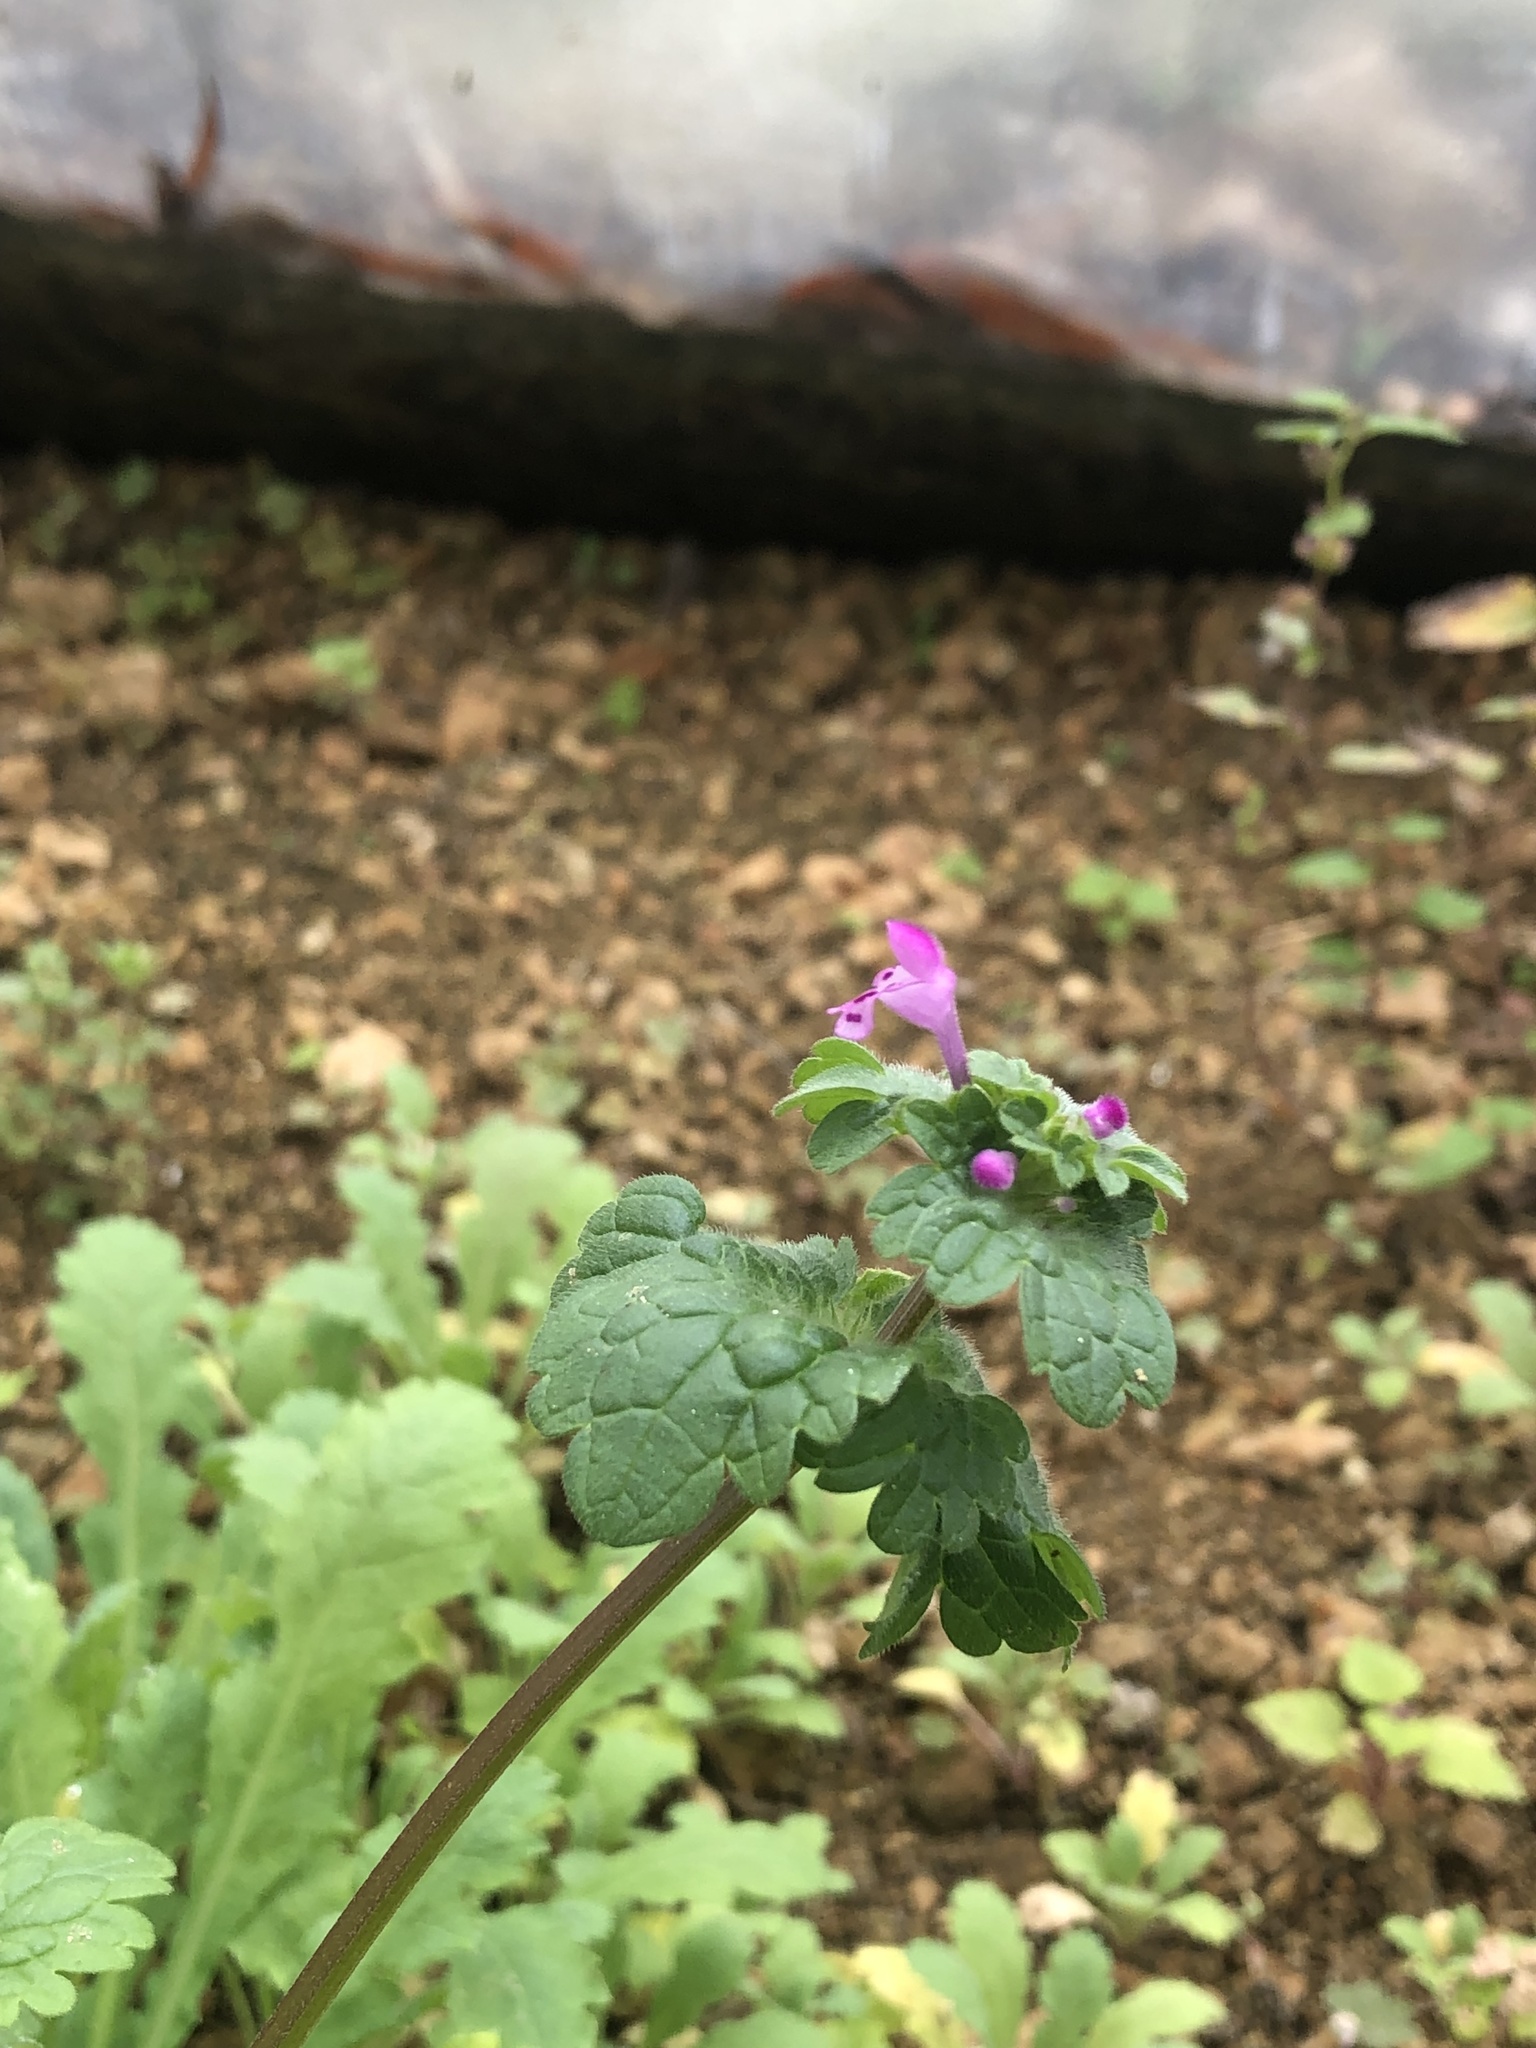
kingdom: Plantae
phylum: Tracheophyta
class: Magnoliopsida
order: Lamiales
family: Lamiaceae
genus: Lamium
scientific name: Lamium amplexicaule
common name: Henbit dead-nettle
